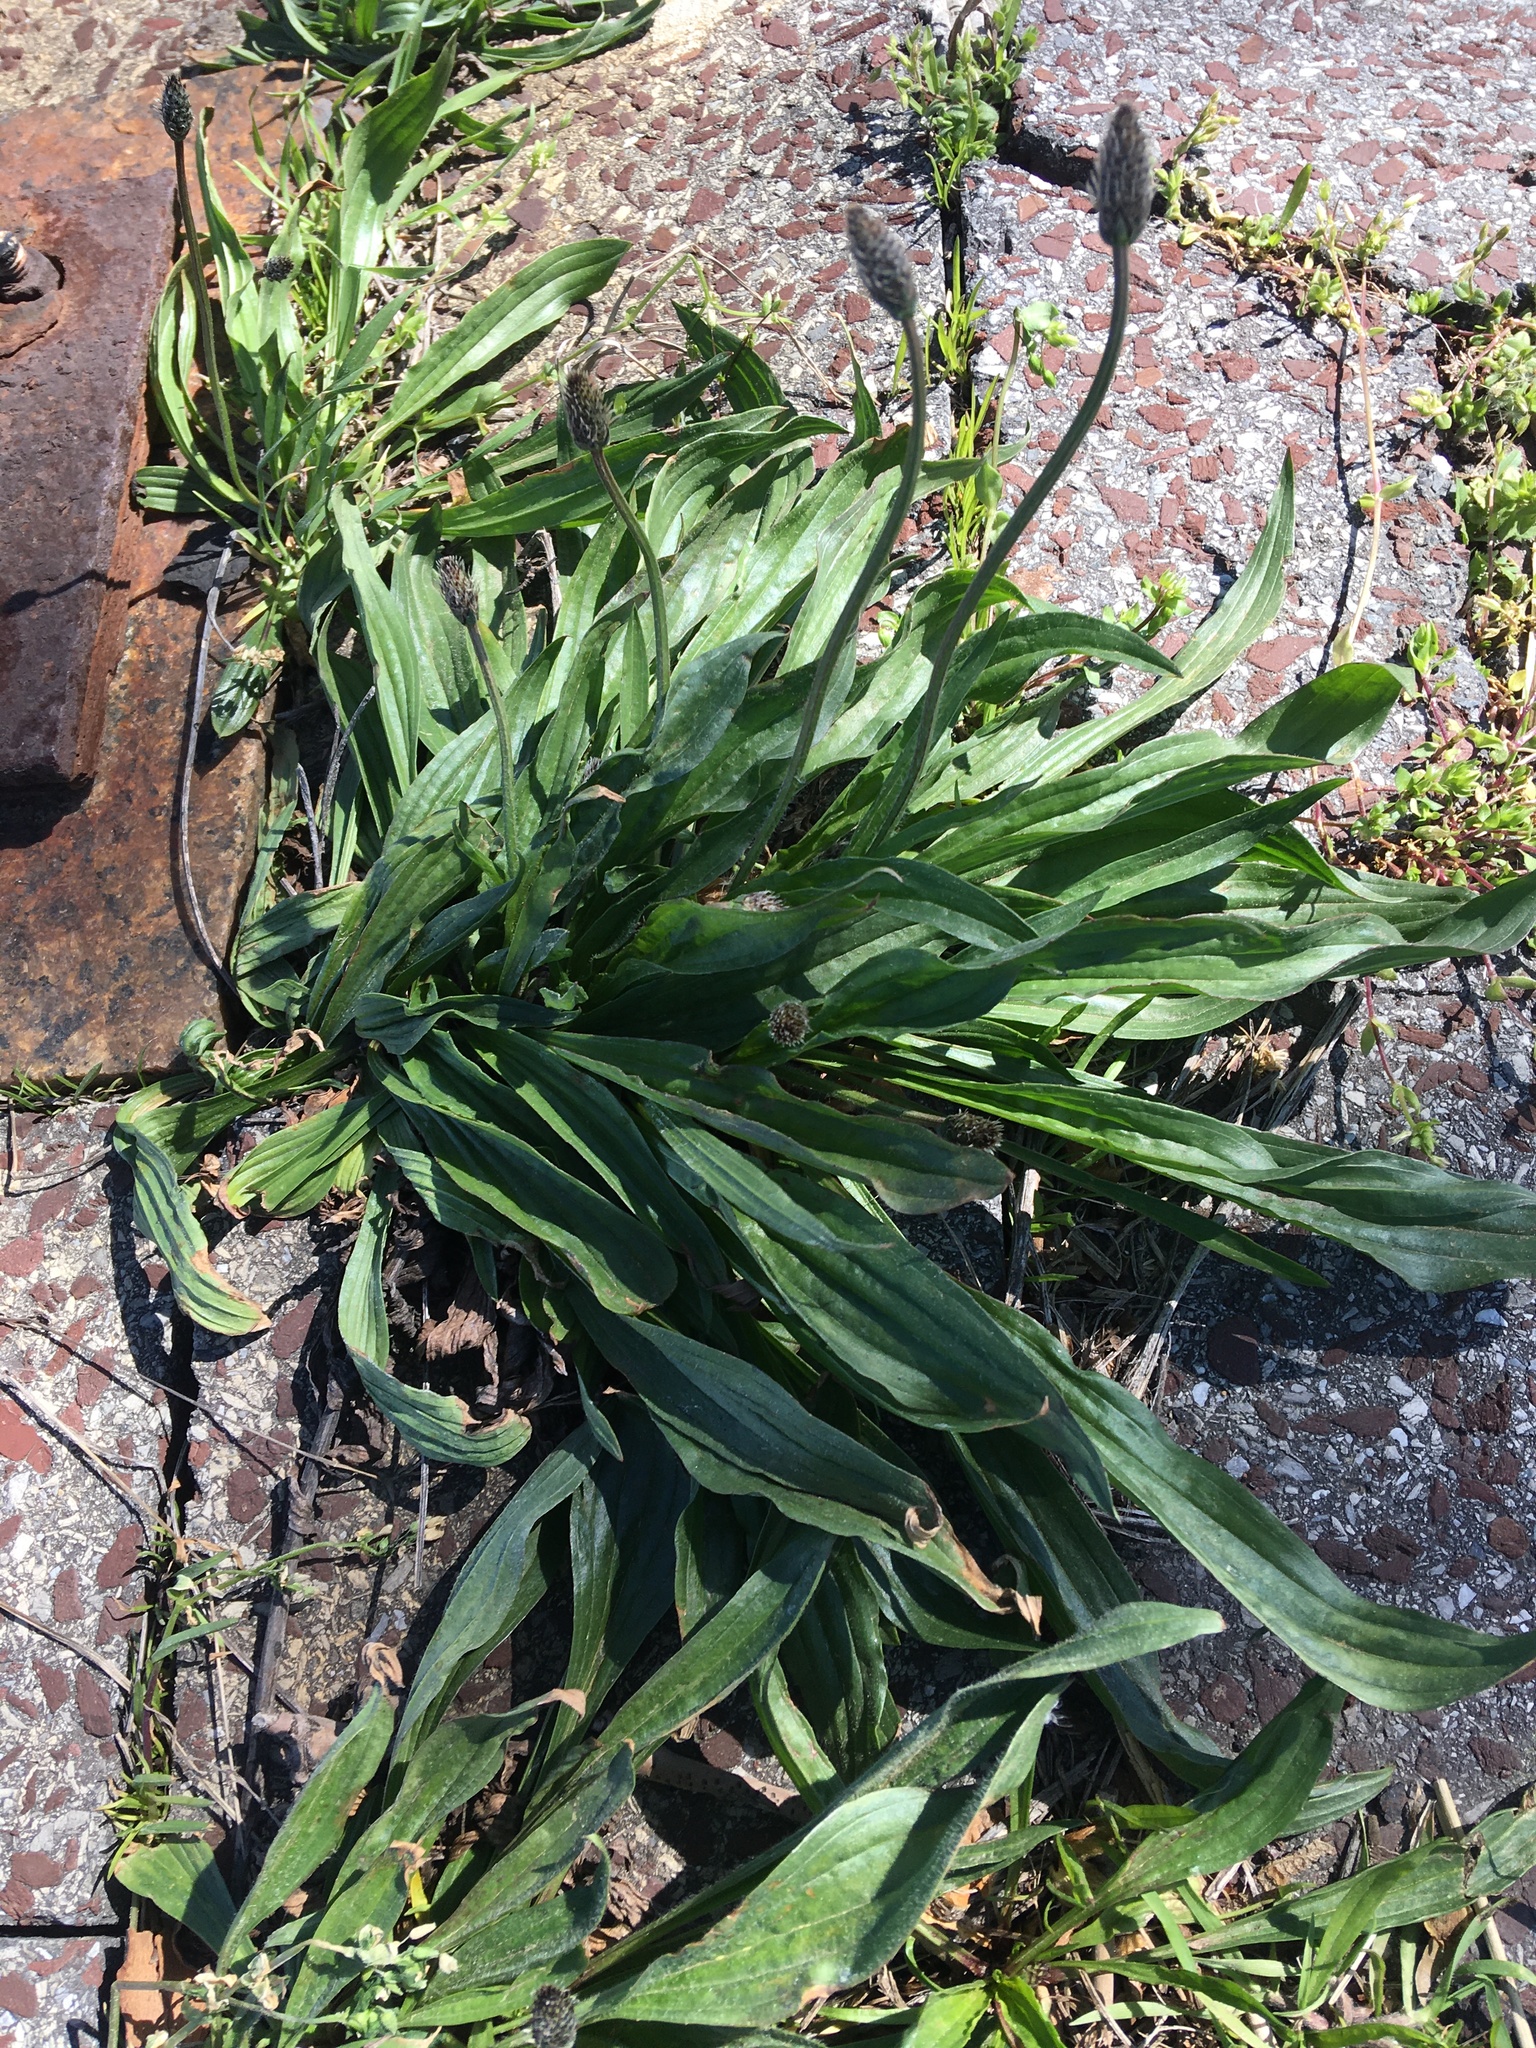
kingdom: Plantae
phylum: Tracheophyta
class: Magnoliopsida
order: Lamiales
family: Plantaginaceae
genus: Plantago
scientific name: Plantago lanceolata
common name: Ribwort plantain
